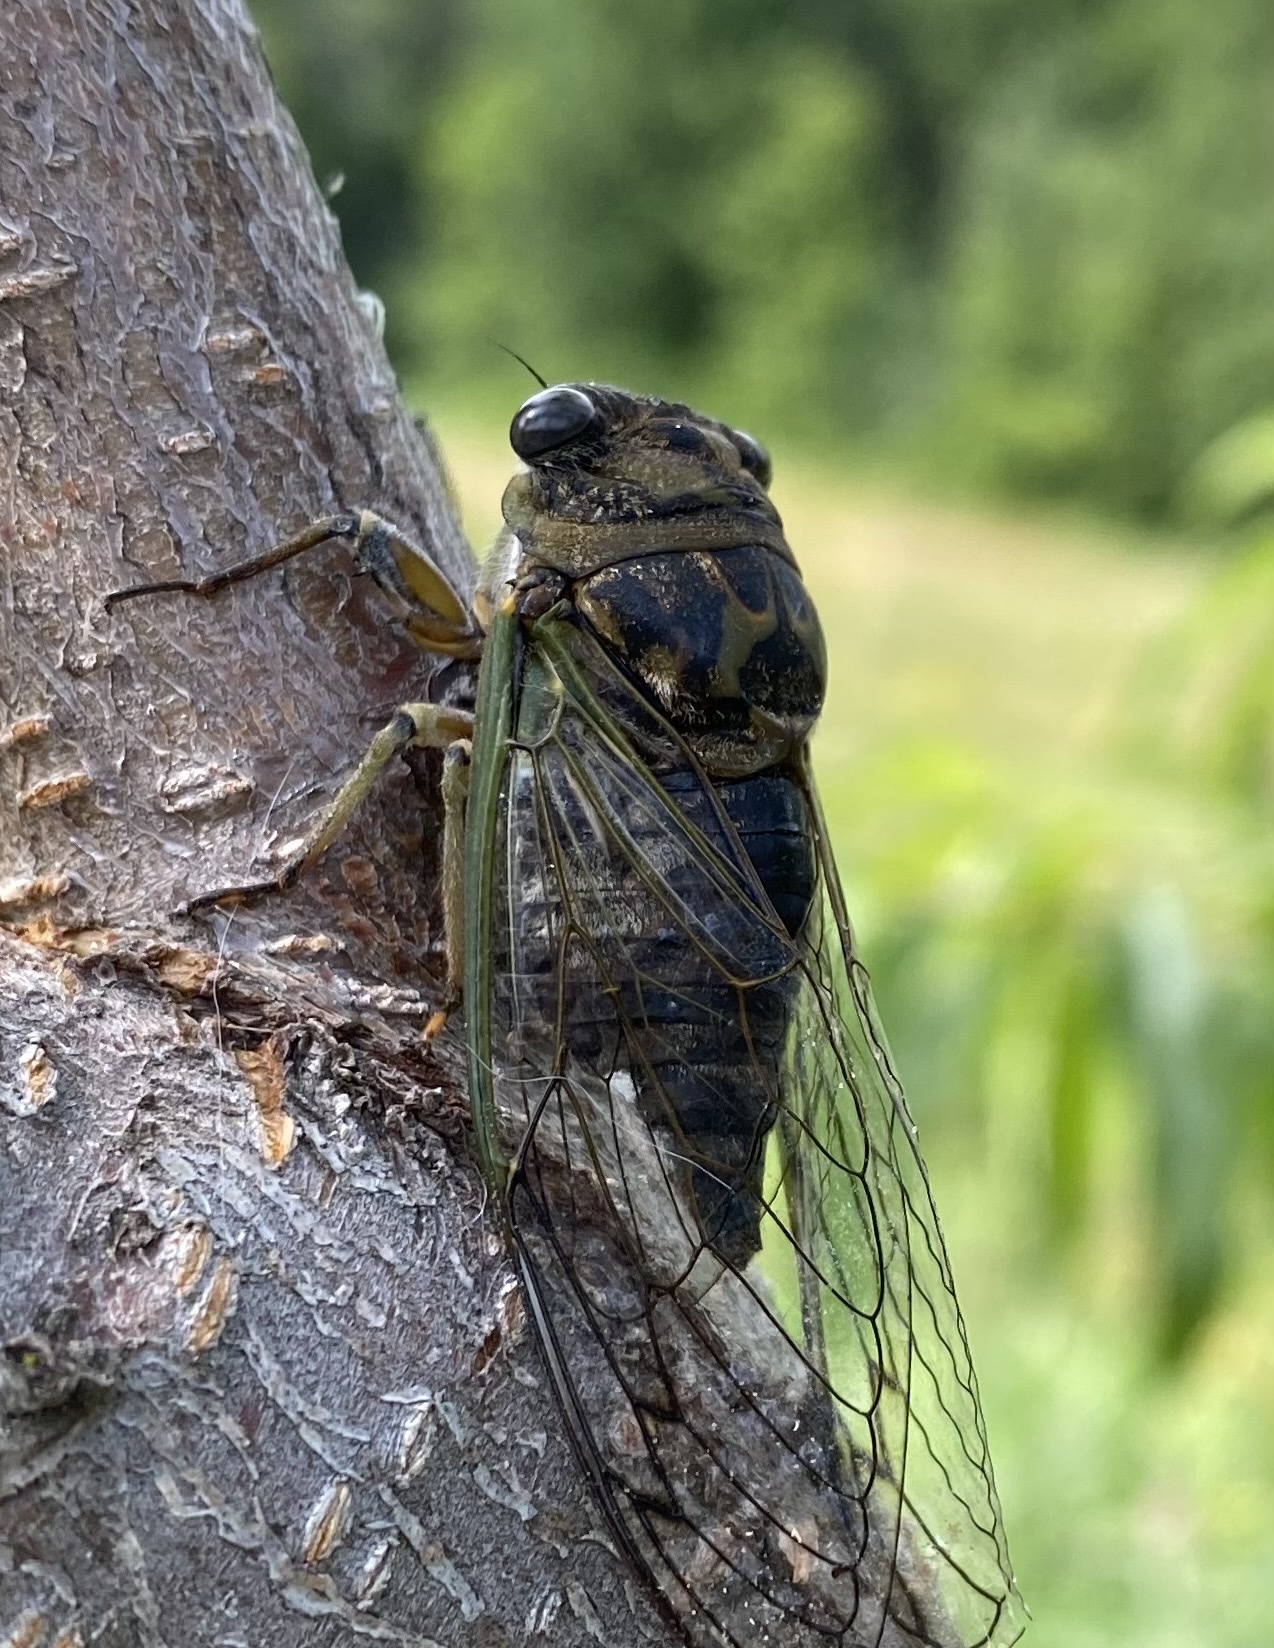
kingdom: Animalia
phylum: Arthropoda
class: Insecta
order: Hemiptera
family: Cicadidae
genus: Neotibicen
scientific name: Neotibicen canicularis
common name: God-day cicada
